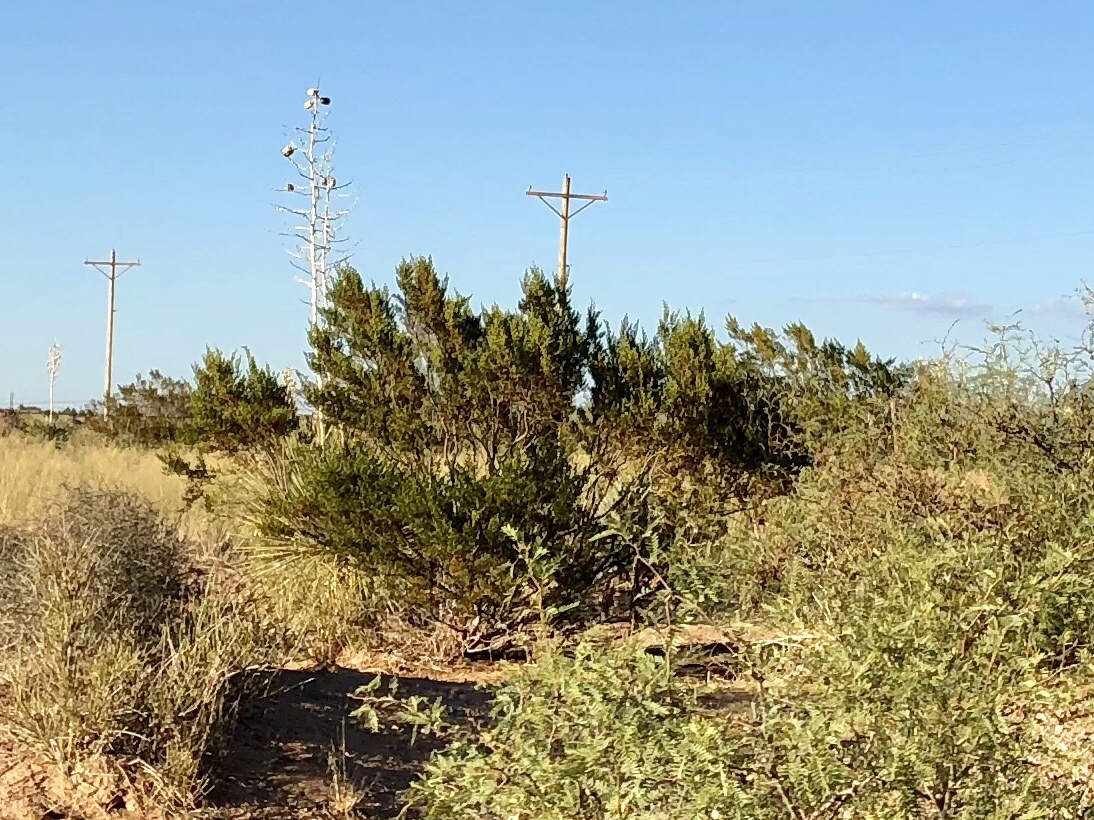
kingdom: Plantae
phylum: Tracheophyta
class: Magnoliopsida
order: Zygophyllales
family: Zygophyllaceae
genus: Larrea
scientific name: Larrea tridentata
